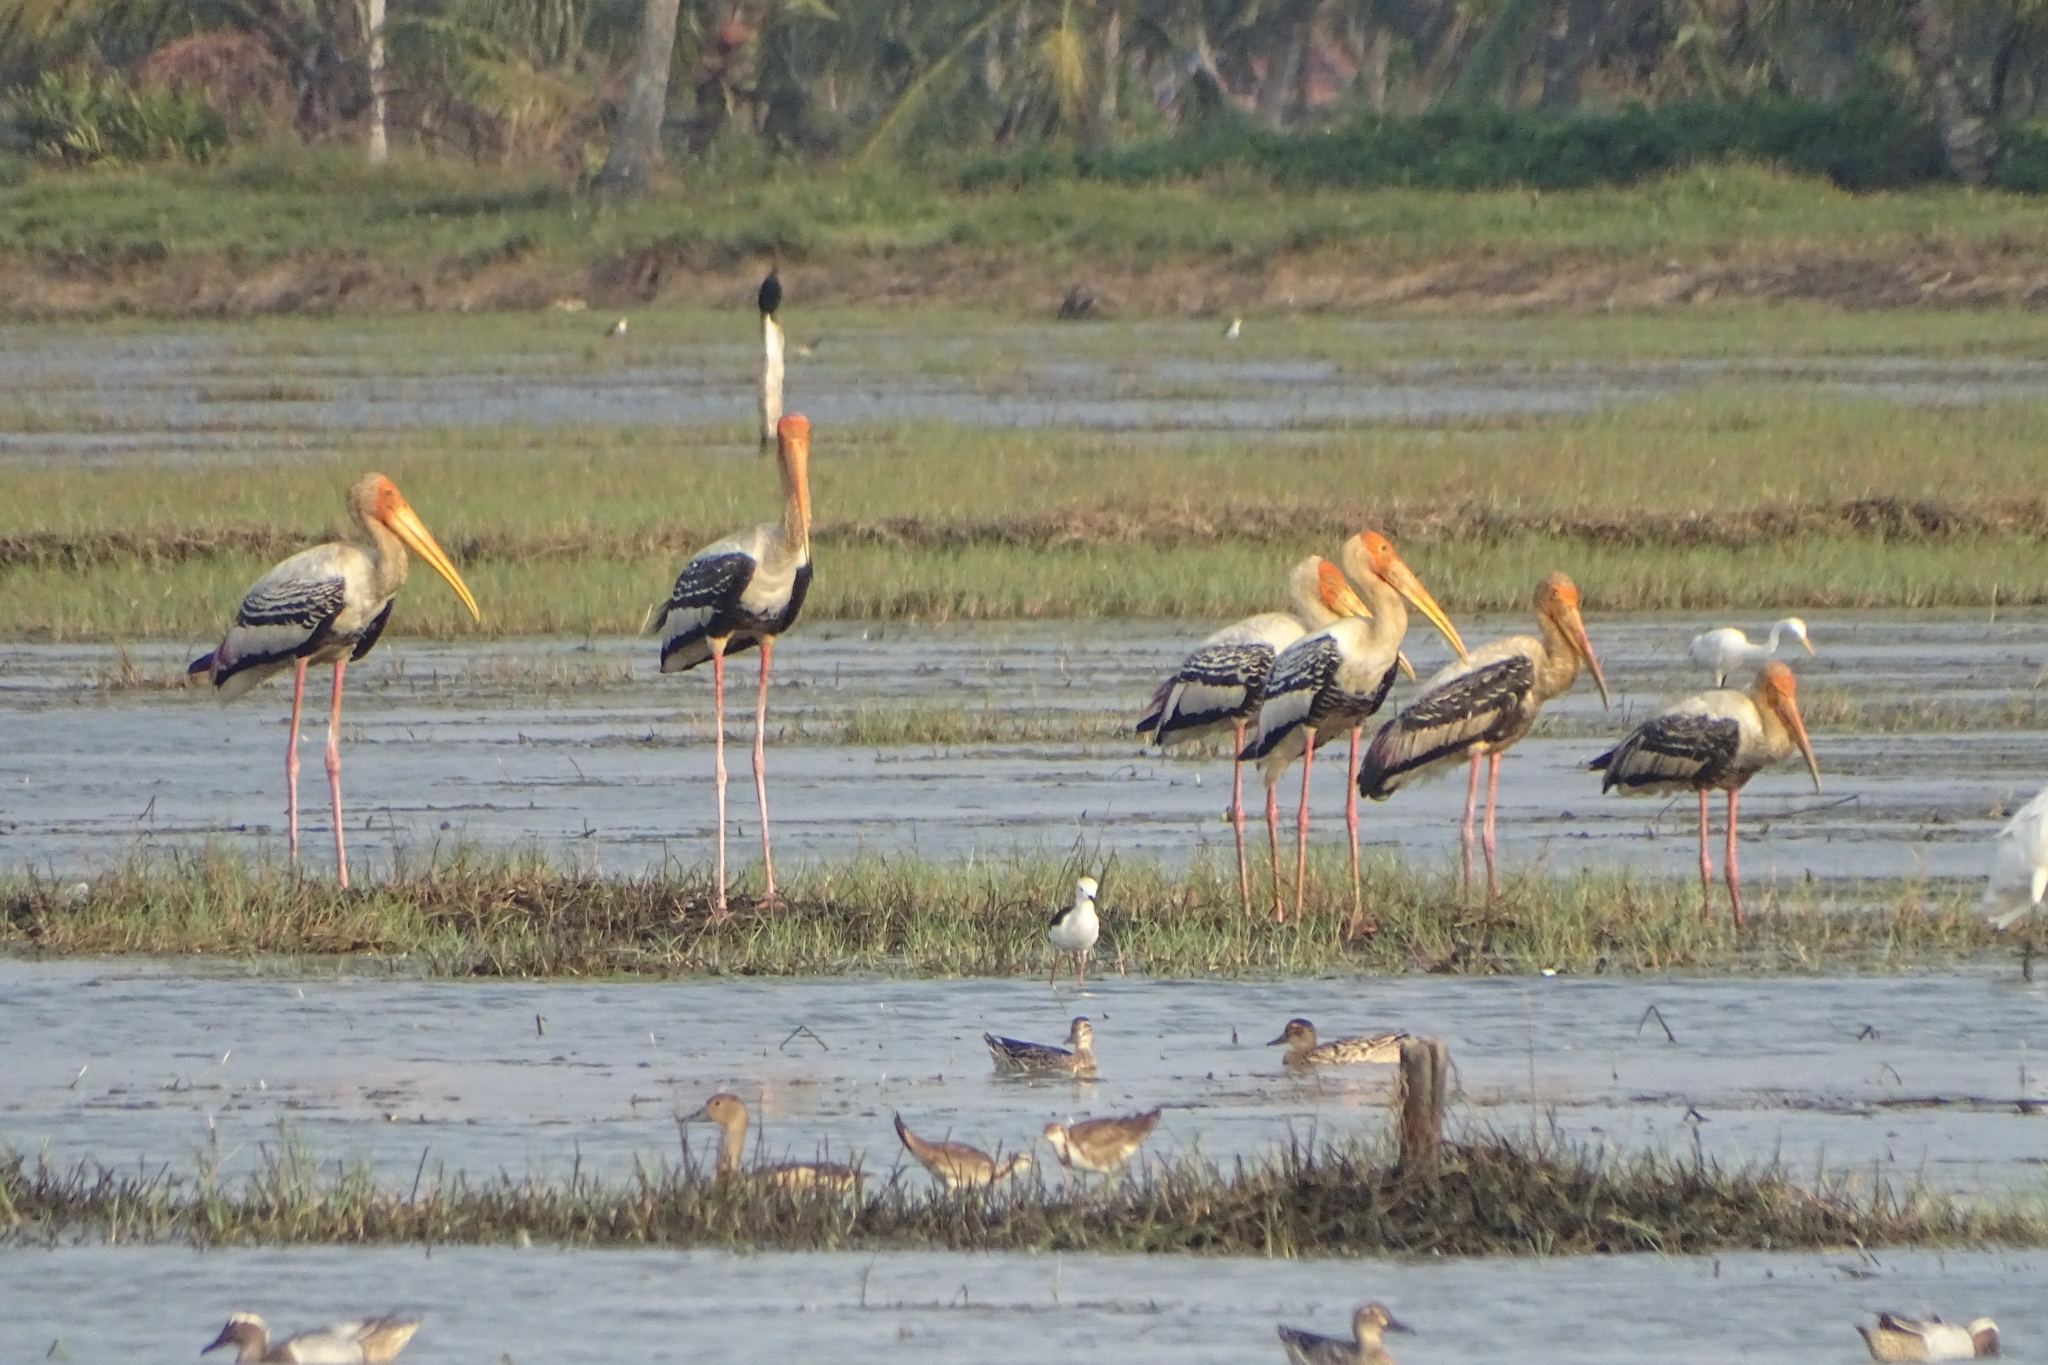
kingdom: Animalia
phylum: Chordata
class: Aves
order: Ciconiiformes
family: Ciconiidae
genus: Mycteria
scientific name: Mycteria leucocephala
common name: Painted stork
